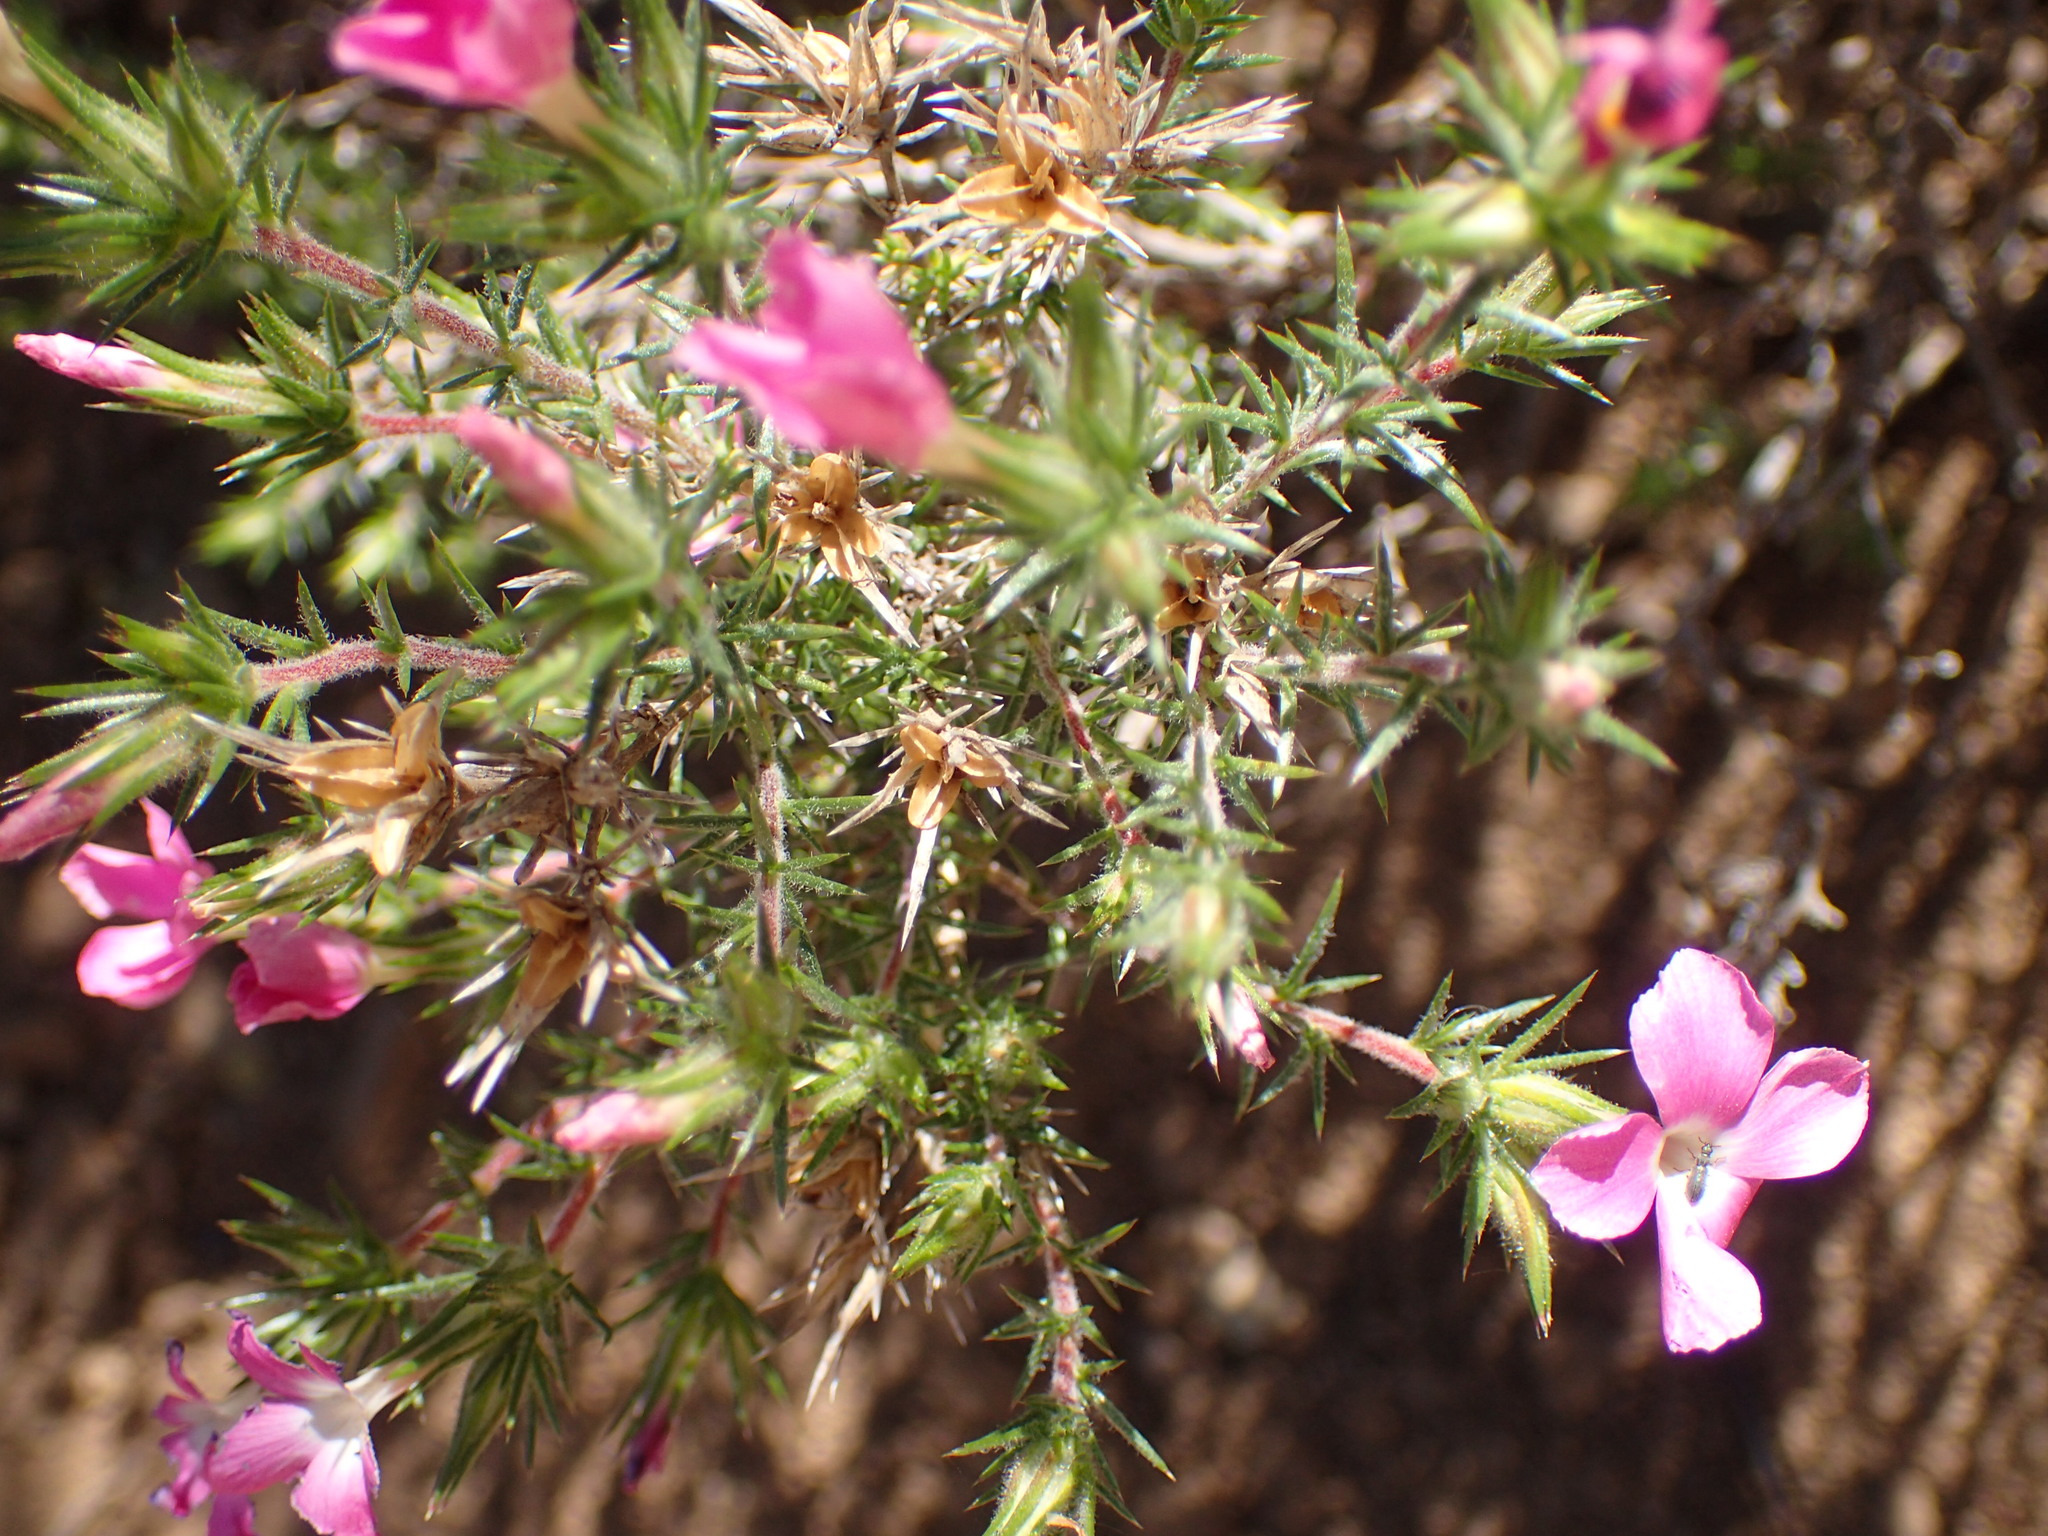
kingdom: Plantae
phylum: Tracheophyta
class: Magnoliopsida
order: Ericales
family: Polemoniaceae
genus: Linanthus
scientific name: Linanthus californicus
